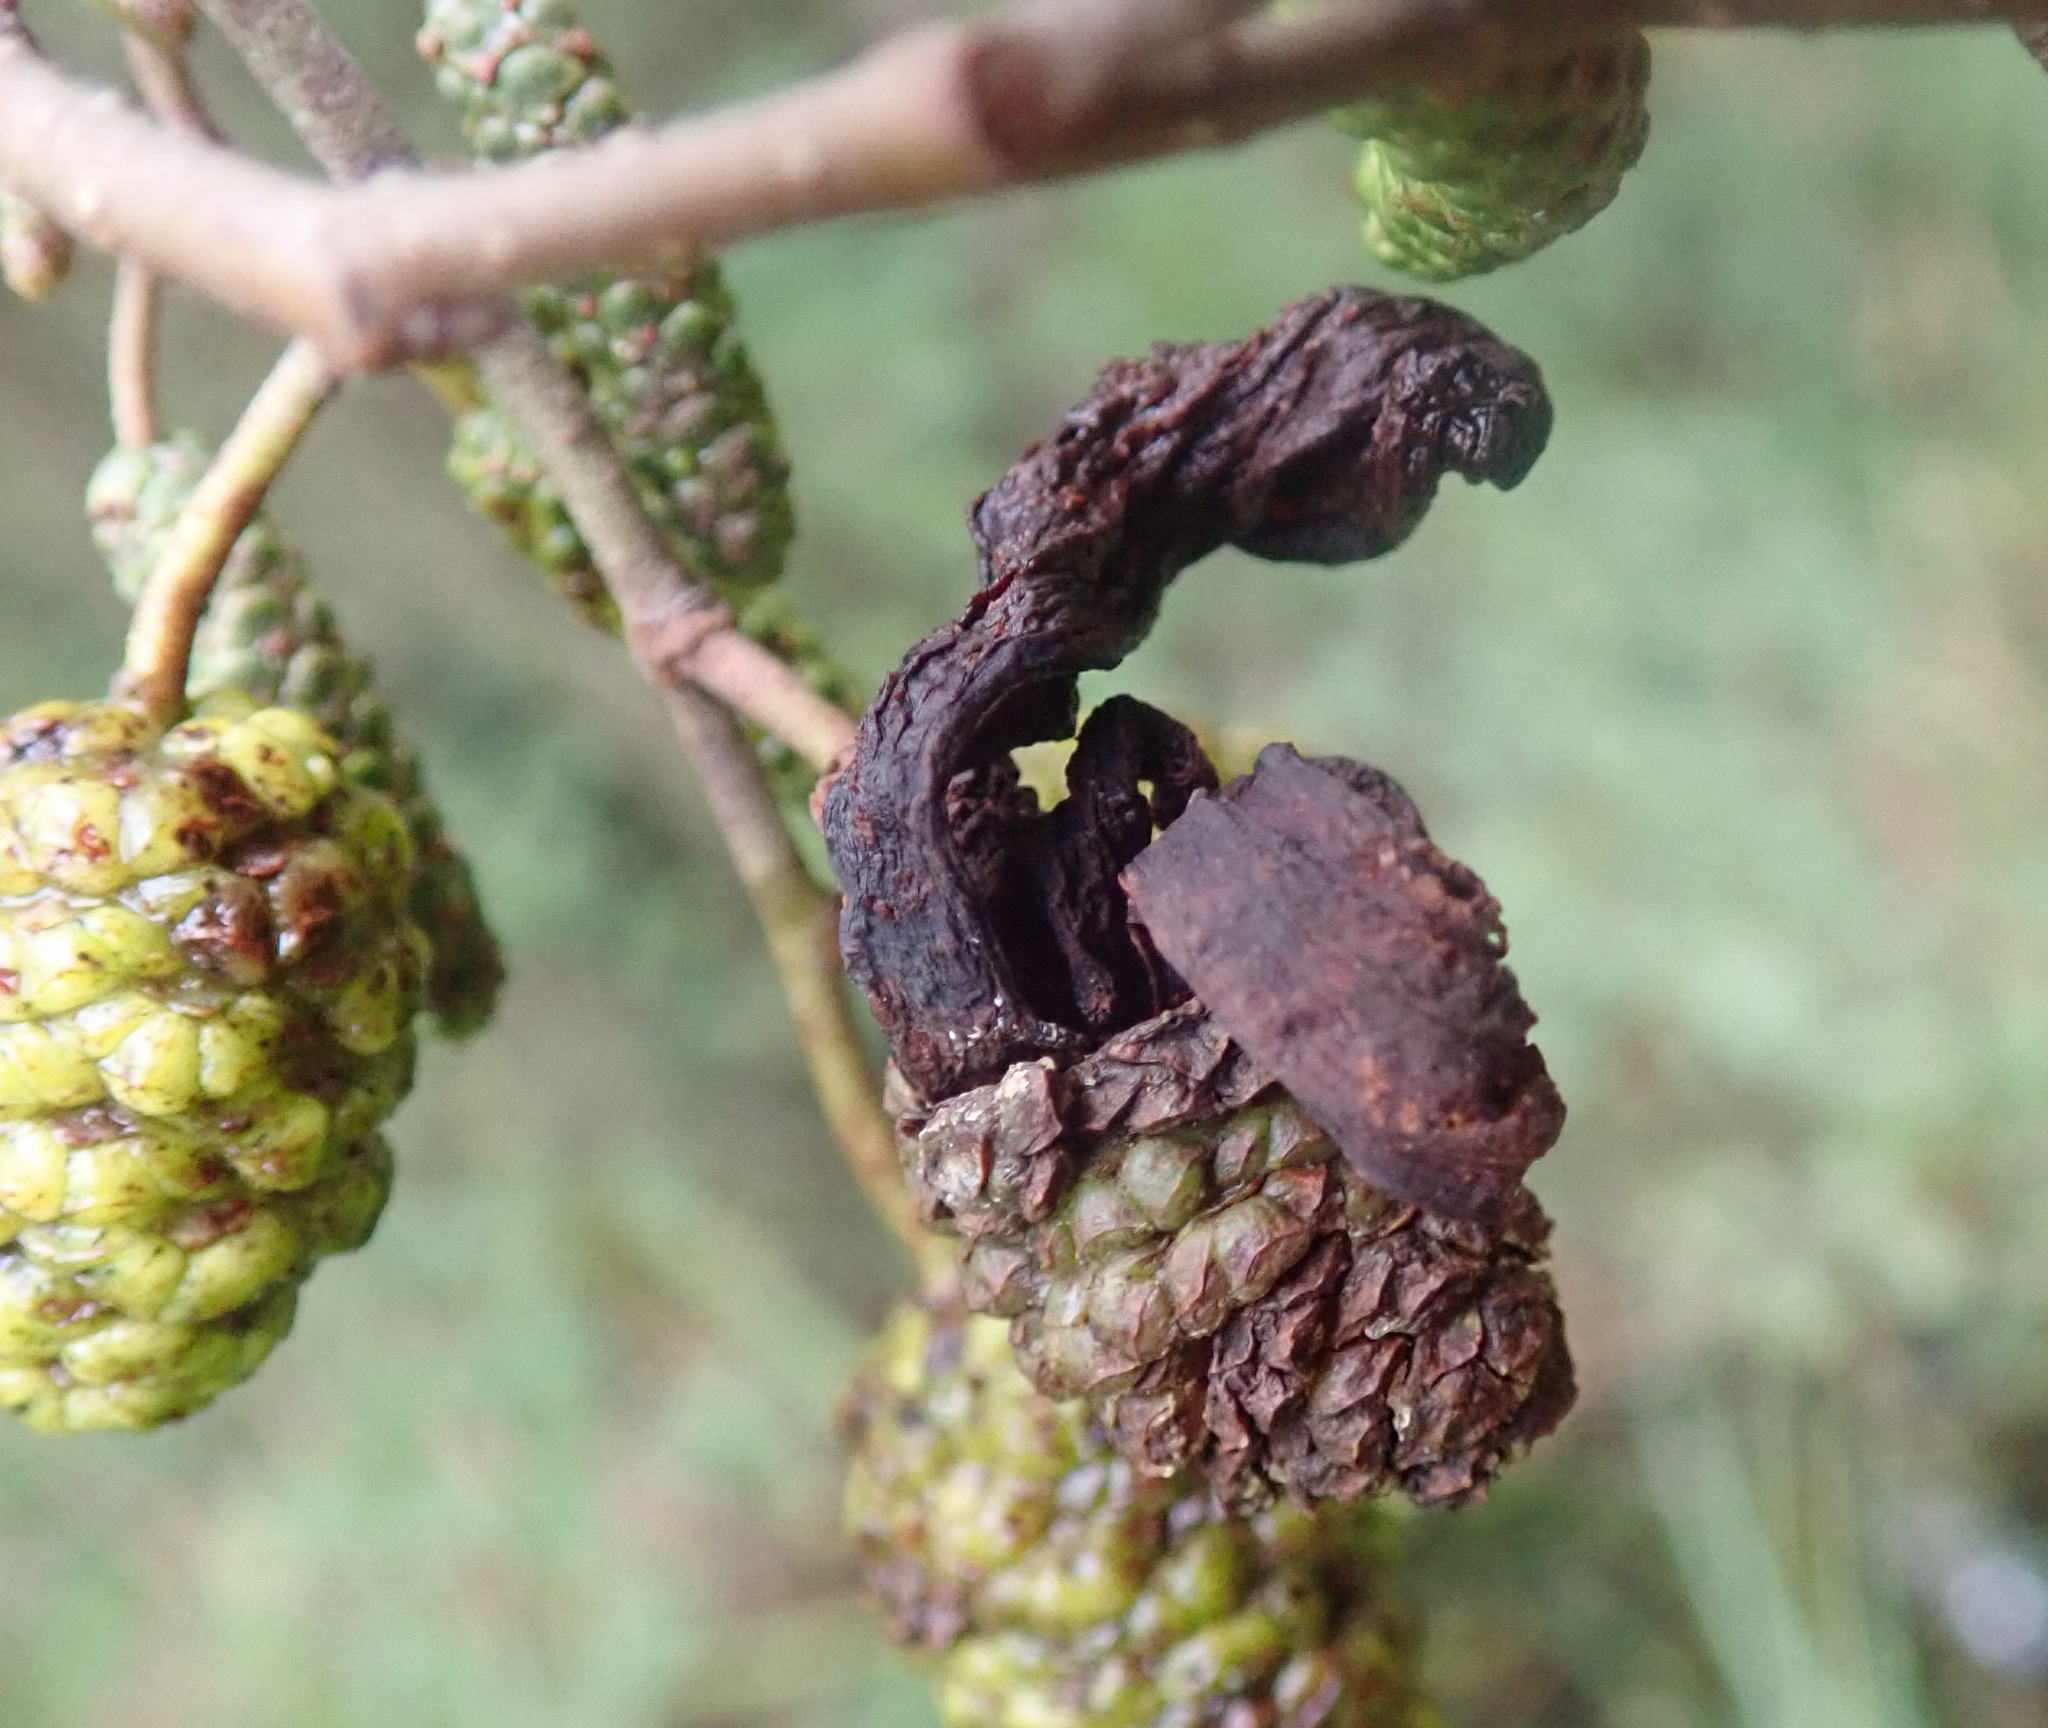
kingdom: Fungi
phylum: Ascomycota
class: Taphrinomycetes
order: Taphrinales
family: Taphrinaceae
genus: Taphrina
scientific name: Taphrina alni
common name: Alder tongue
